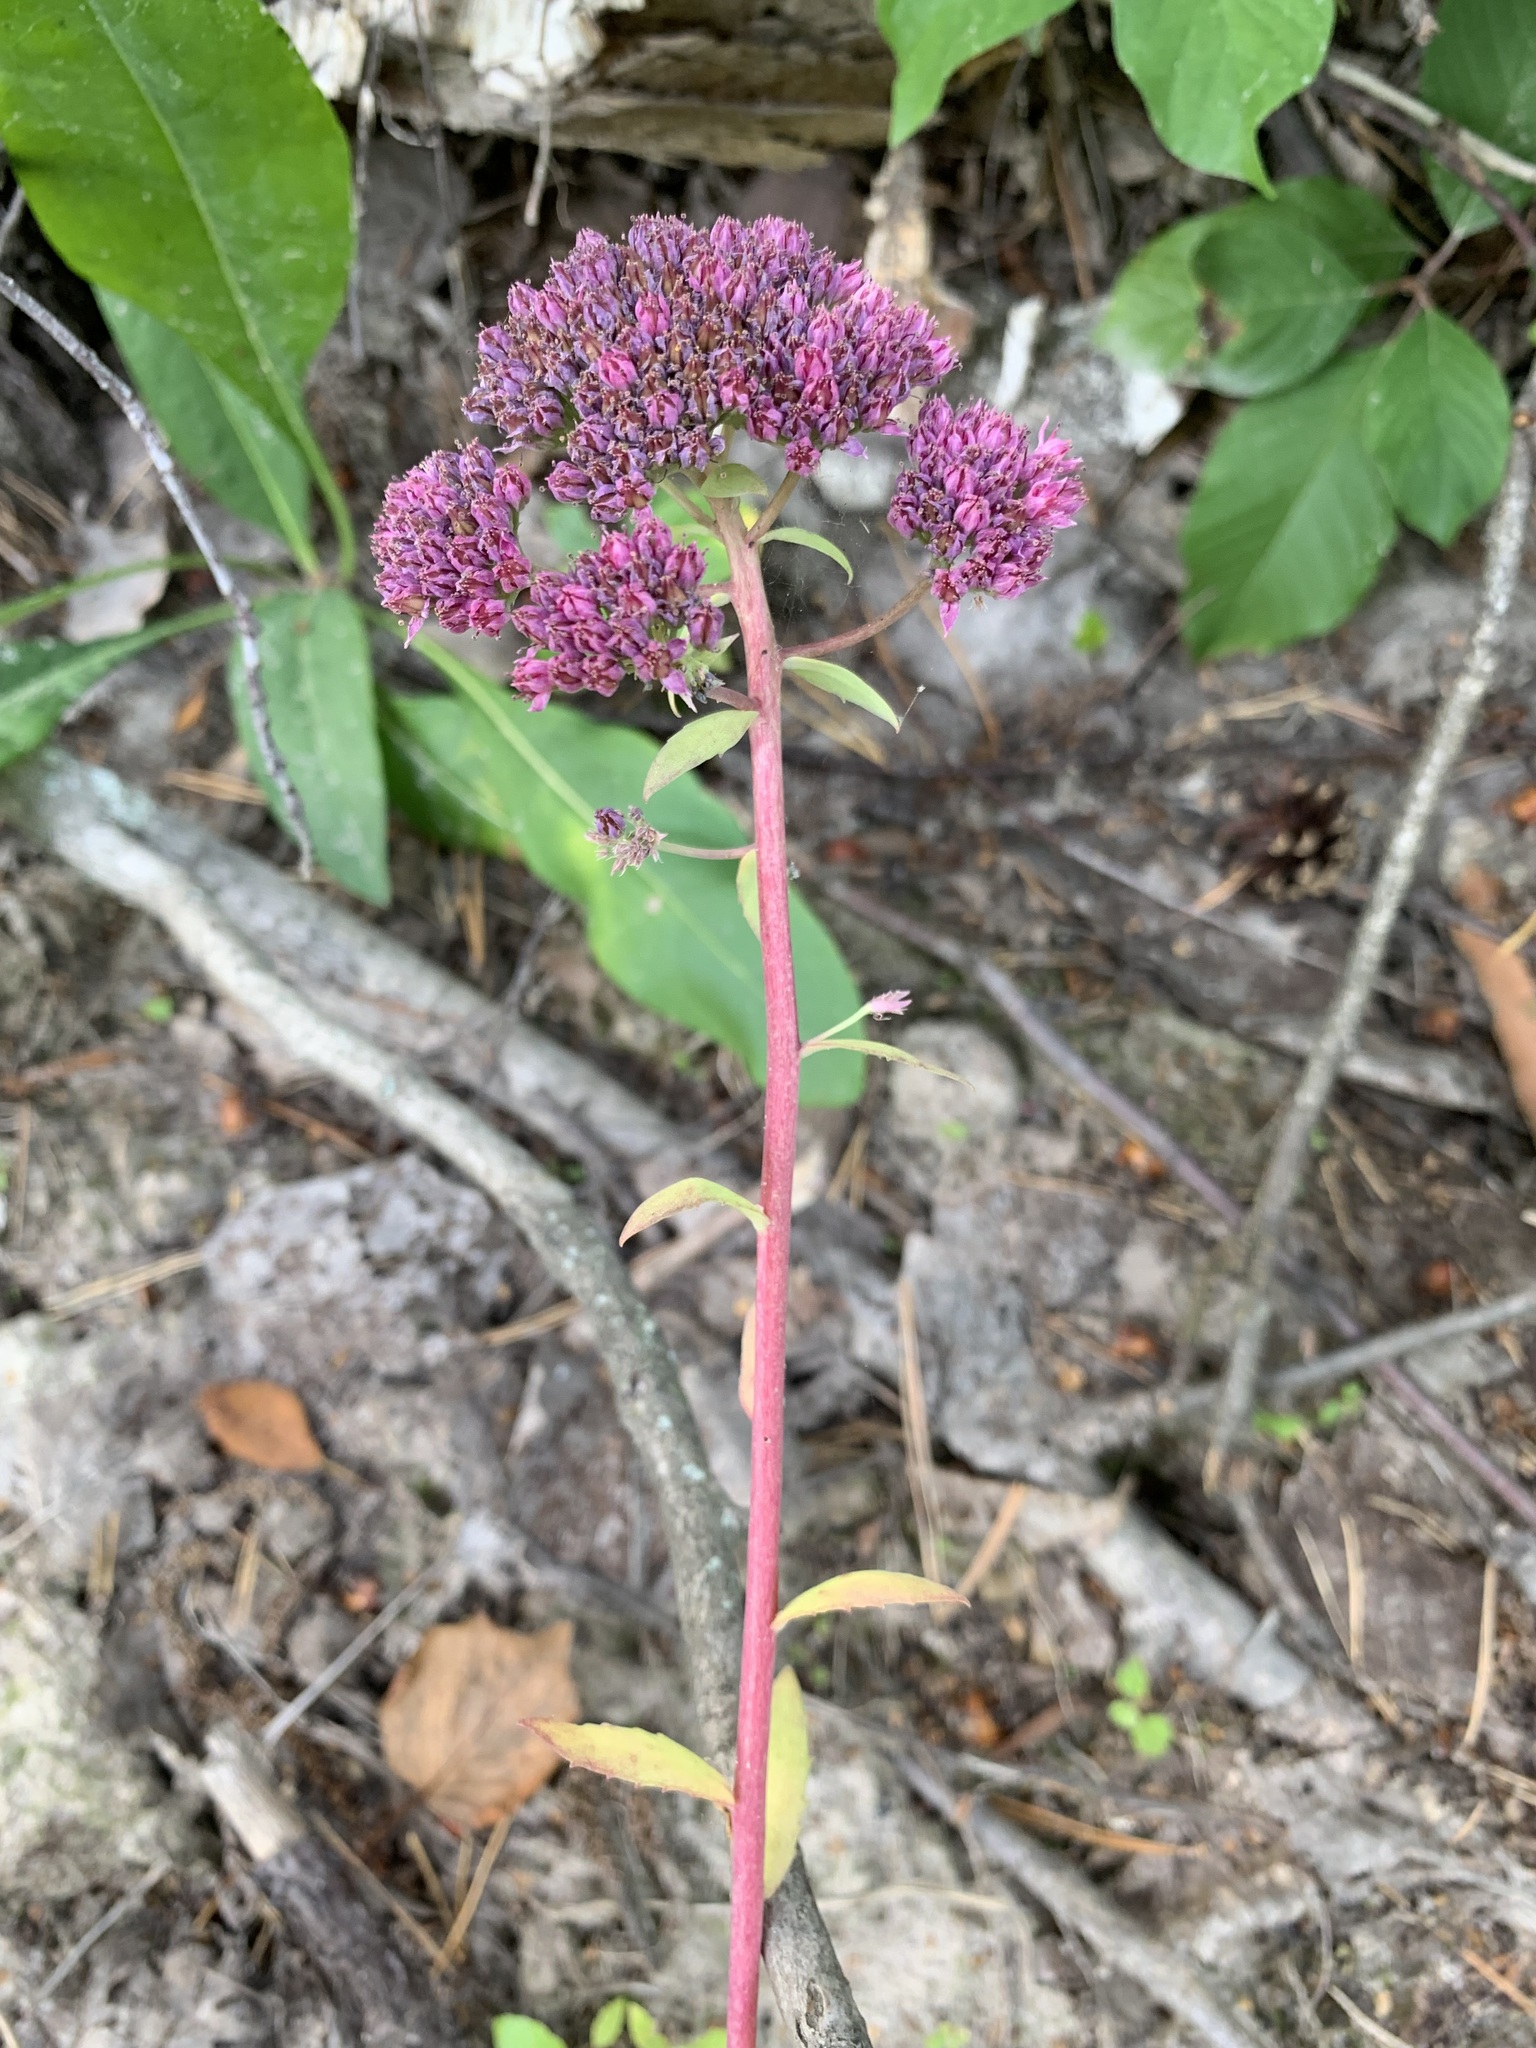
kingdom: Plantae
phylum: Tracheophyta
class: Magnoliopsida
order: Saxifragales
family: Crassulaceae
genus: Hylotelephium
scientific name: Hylotelephium telephium
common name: Live-forever
